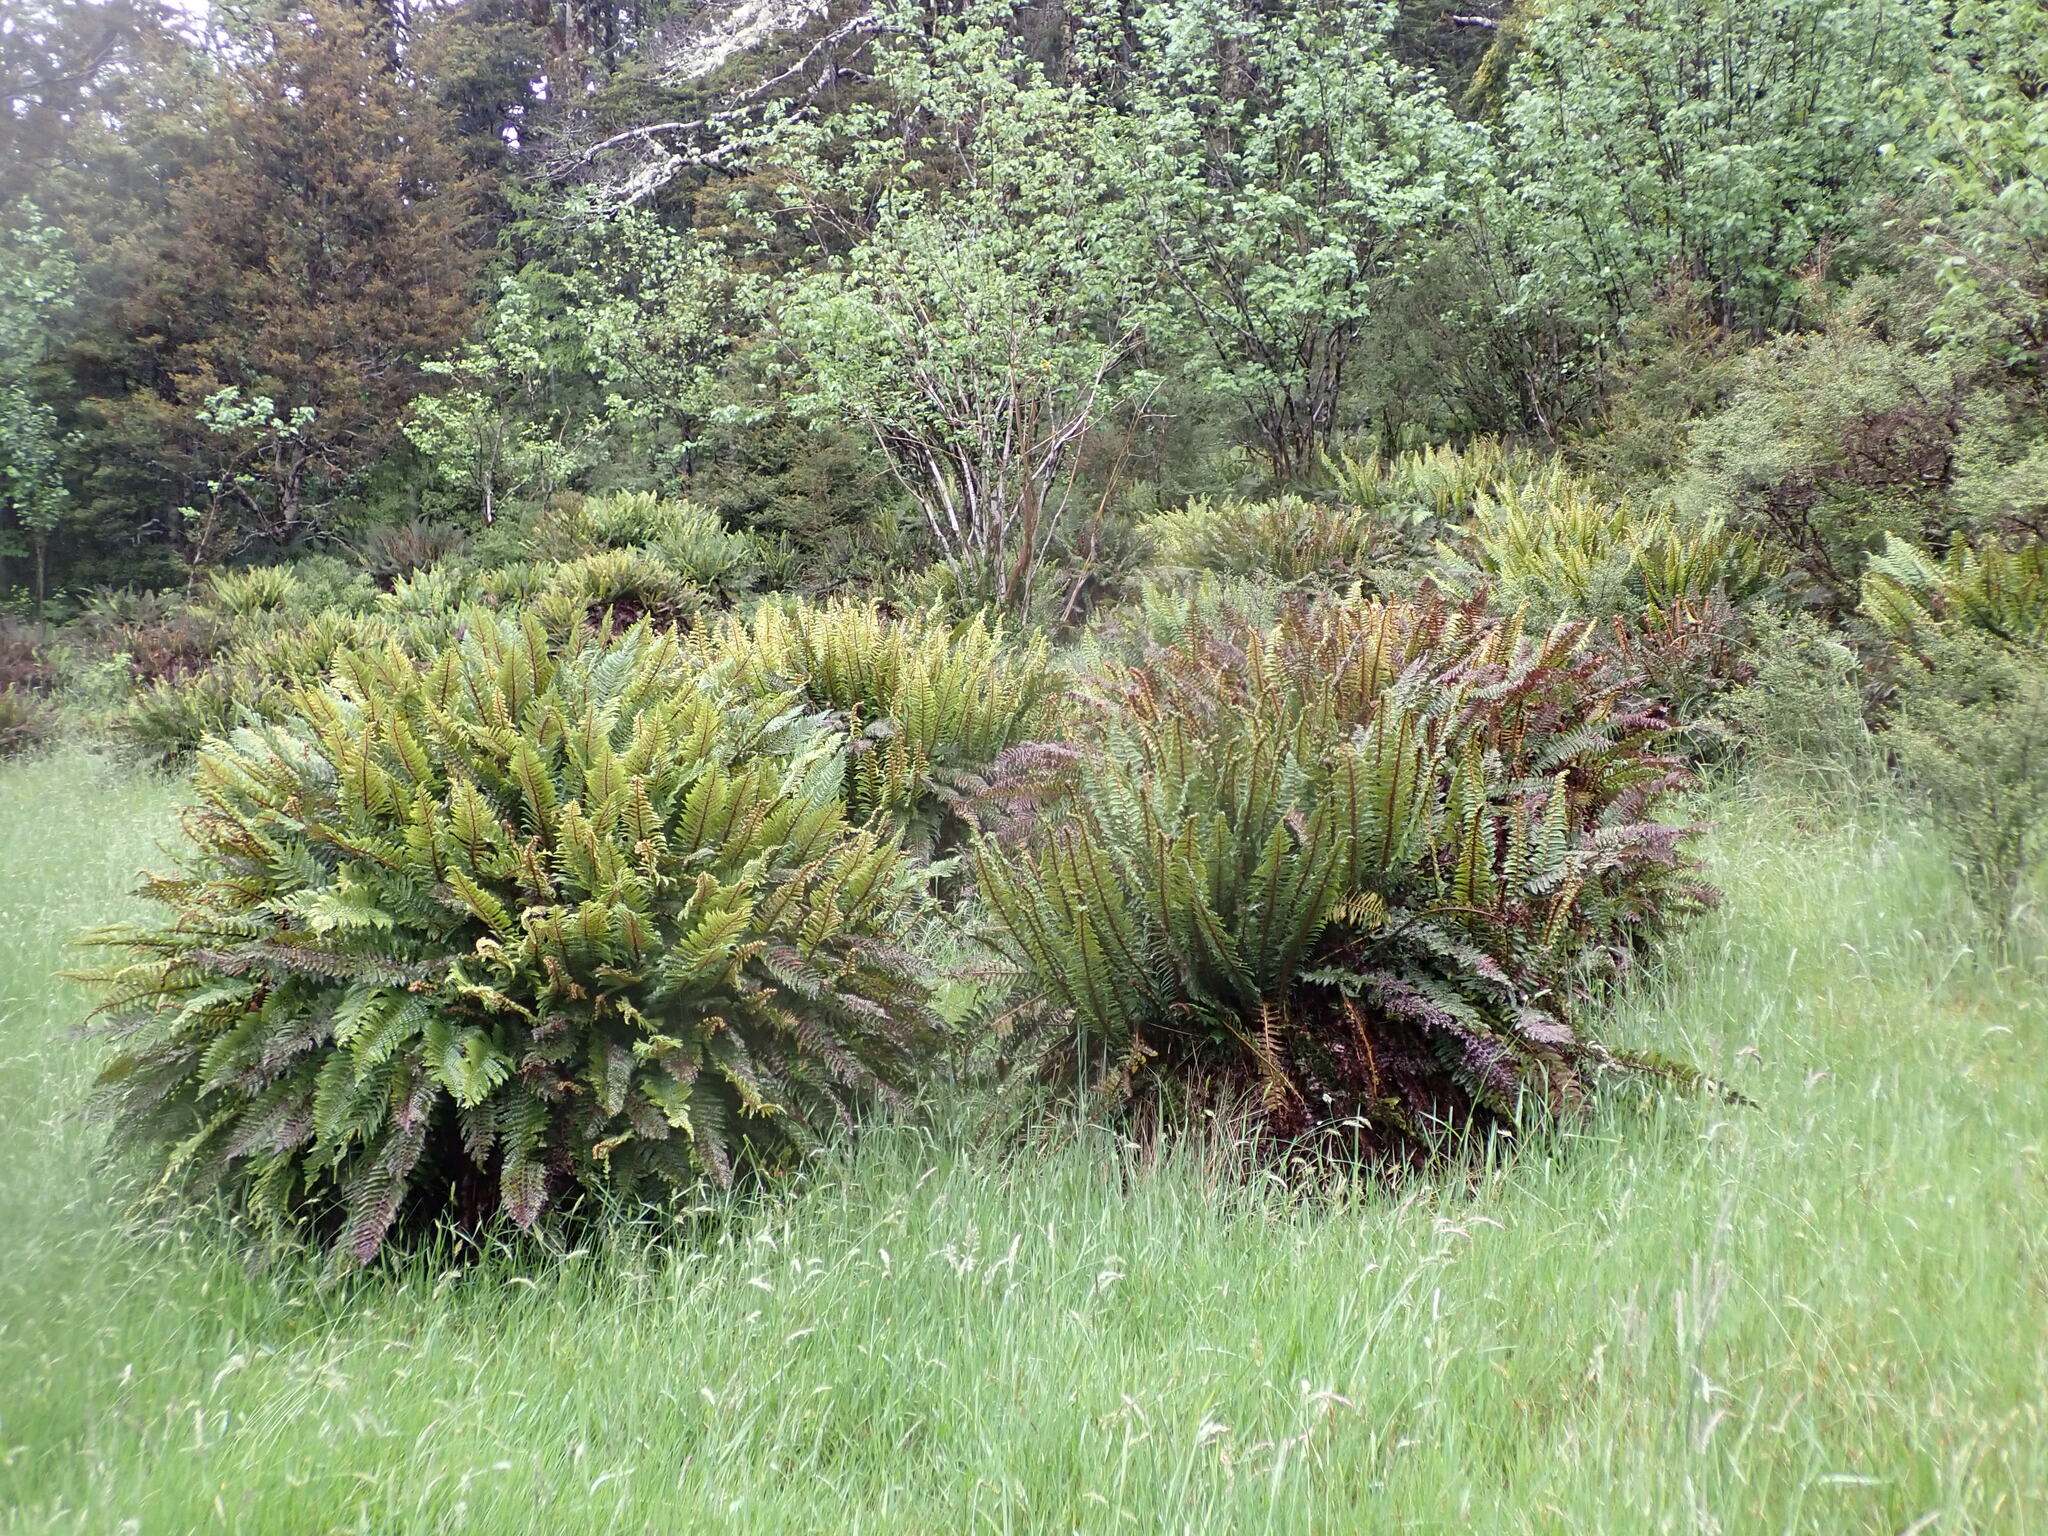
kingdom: Plantae
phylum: Tracheophyta
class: Polypodiopsida
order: Polypodiales
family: Dryopteridaceae
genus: Polystichum
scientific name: Polystichum vestitum
